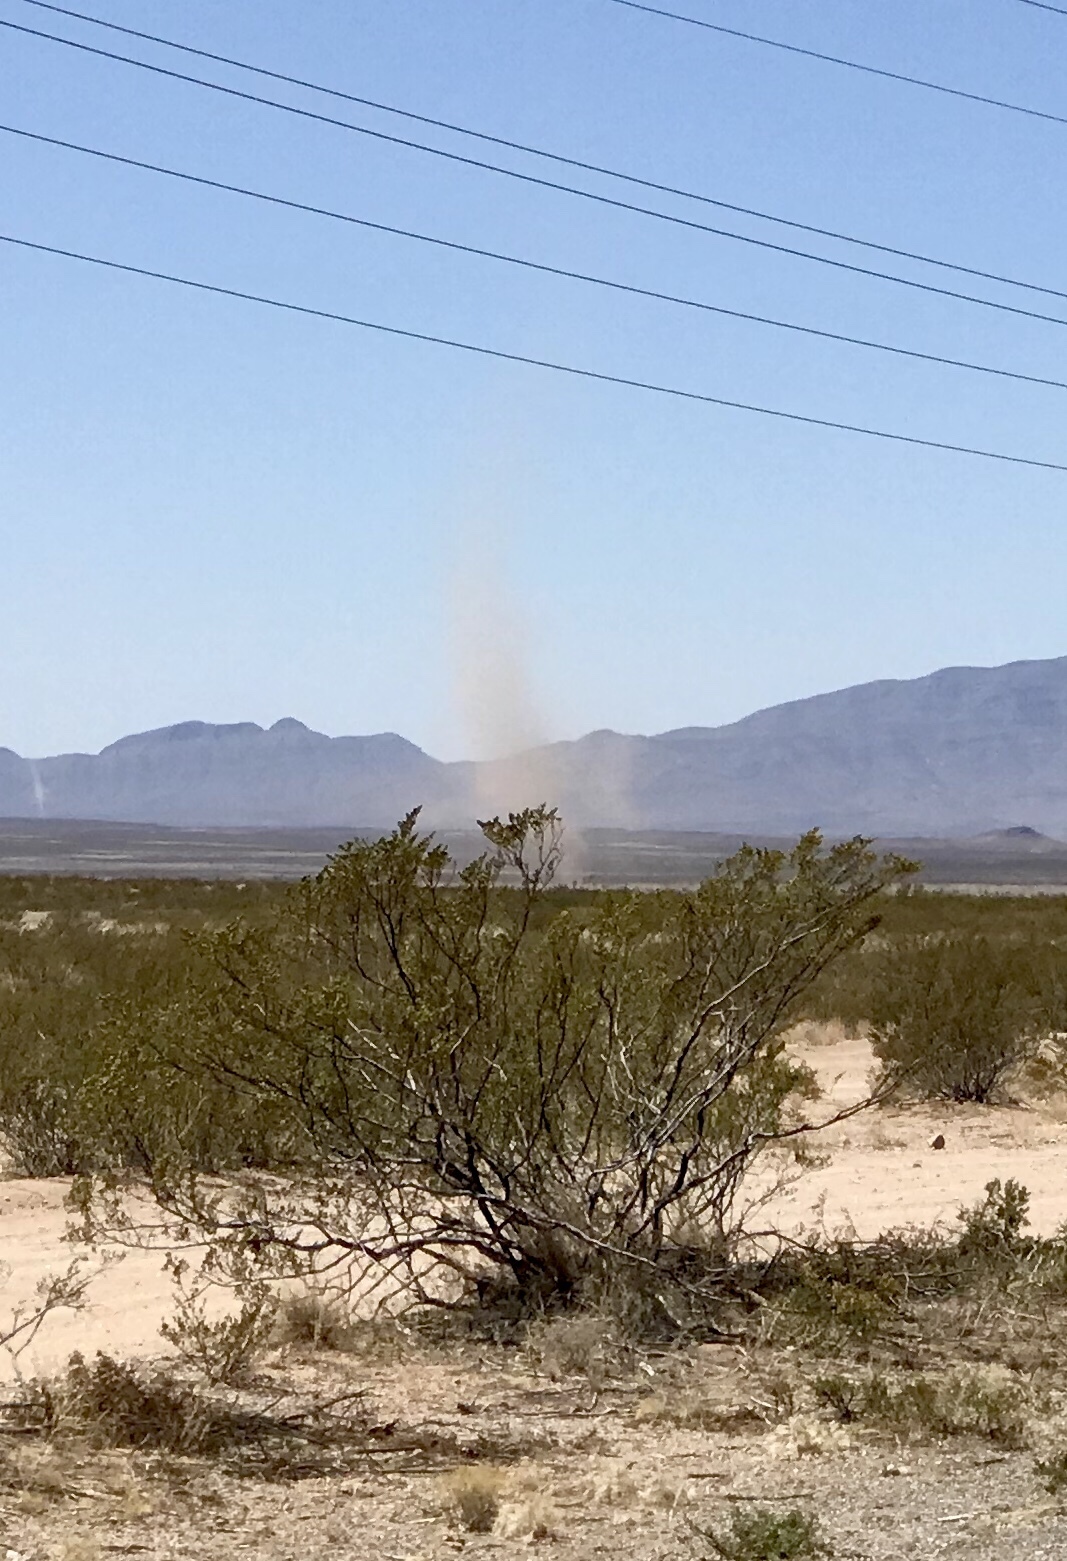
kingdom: Plantae
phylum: Tracheophyta
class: Magnoliopsida
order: Zygophyllales
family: Zygophyllaceae
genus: Larrea
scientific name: Larrea tridentata
